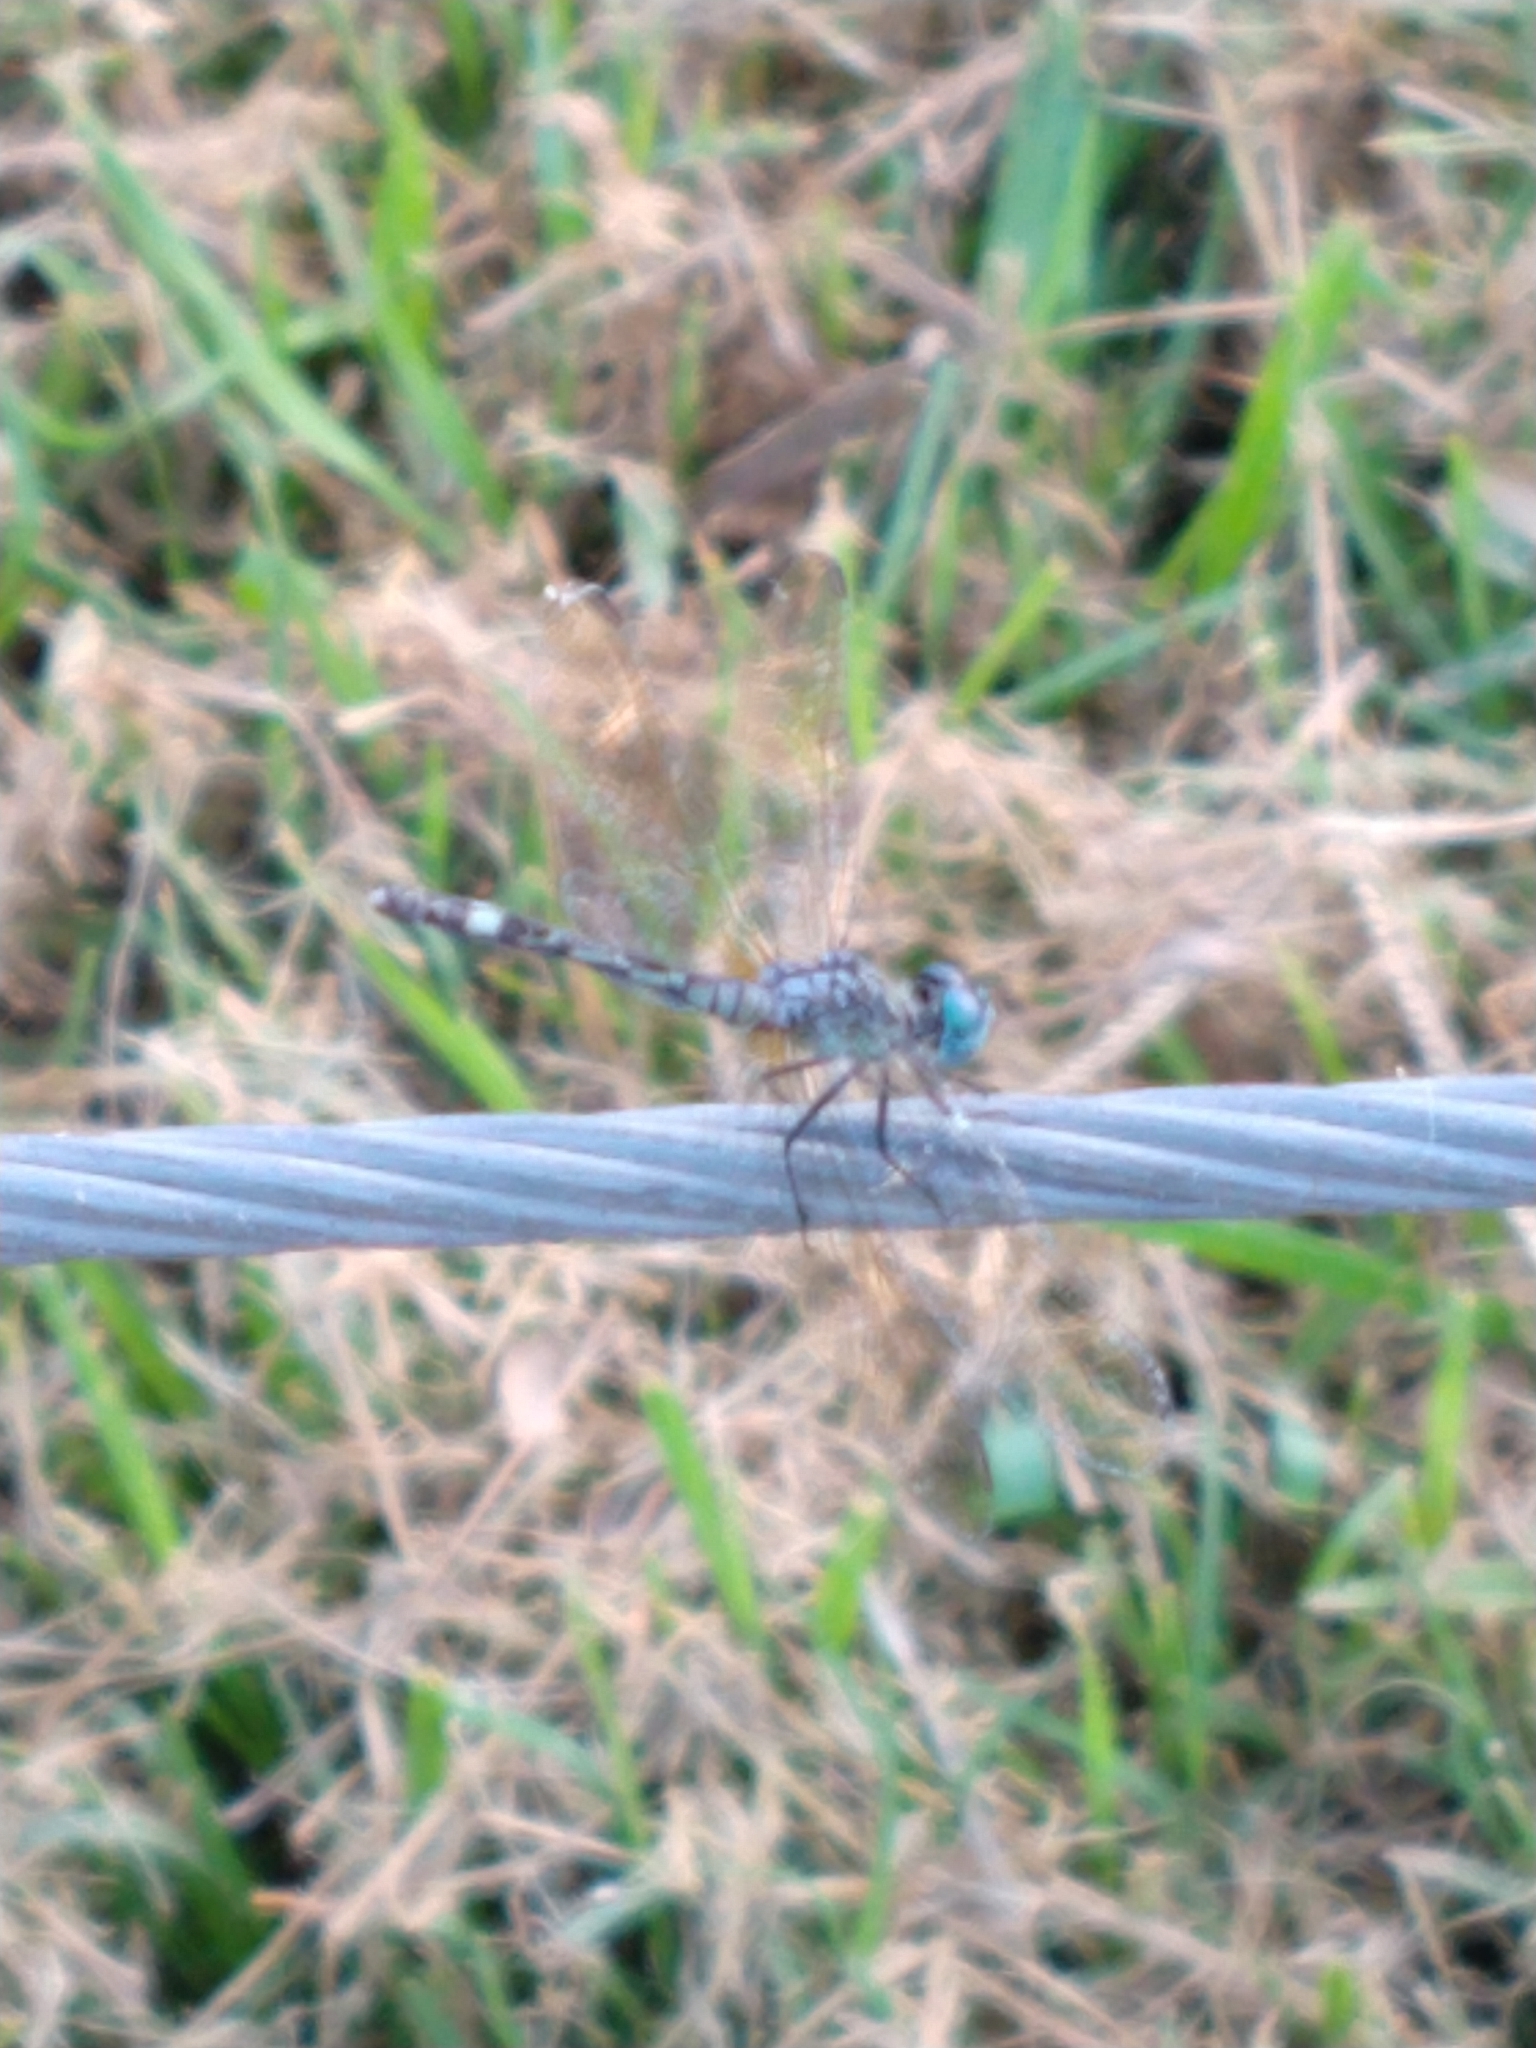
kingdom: Animalia
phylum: Arthropoda
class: Insecta
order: Odonata
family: Libellulidae
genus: Micrathyria
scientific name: Micrathyria longifasciata
